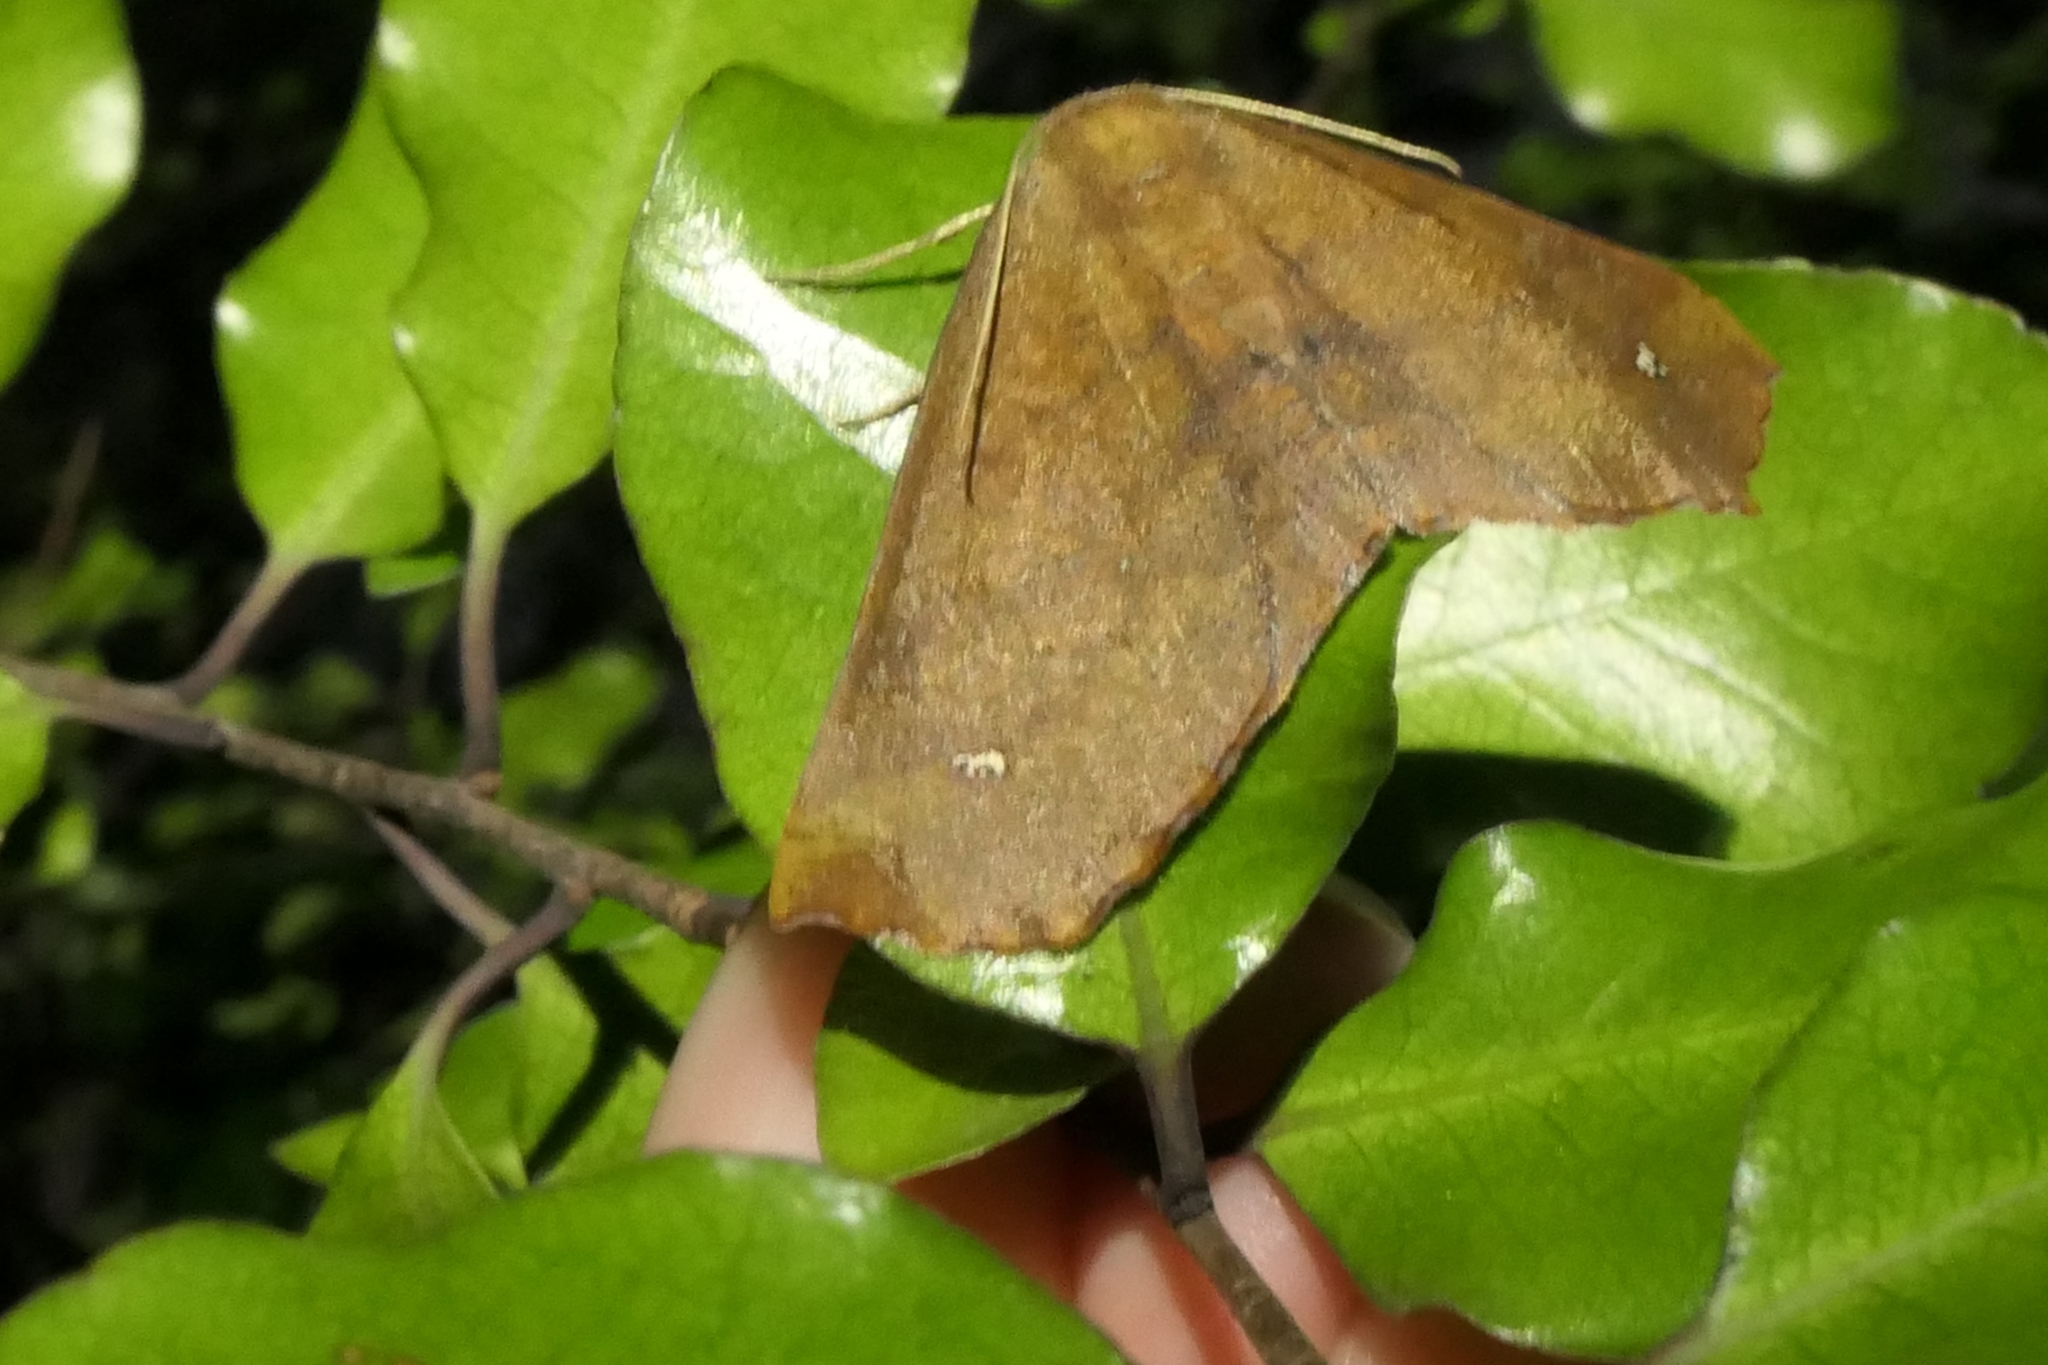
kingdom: Animalia
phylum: Arthropoda
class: Insecta
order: Lepidoptera
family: Geometridae
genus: Xyridacma
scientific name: Xyridacma ustaria
